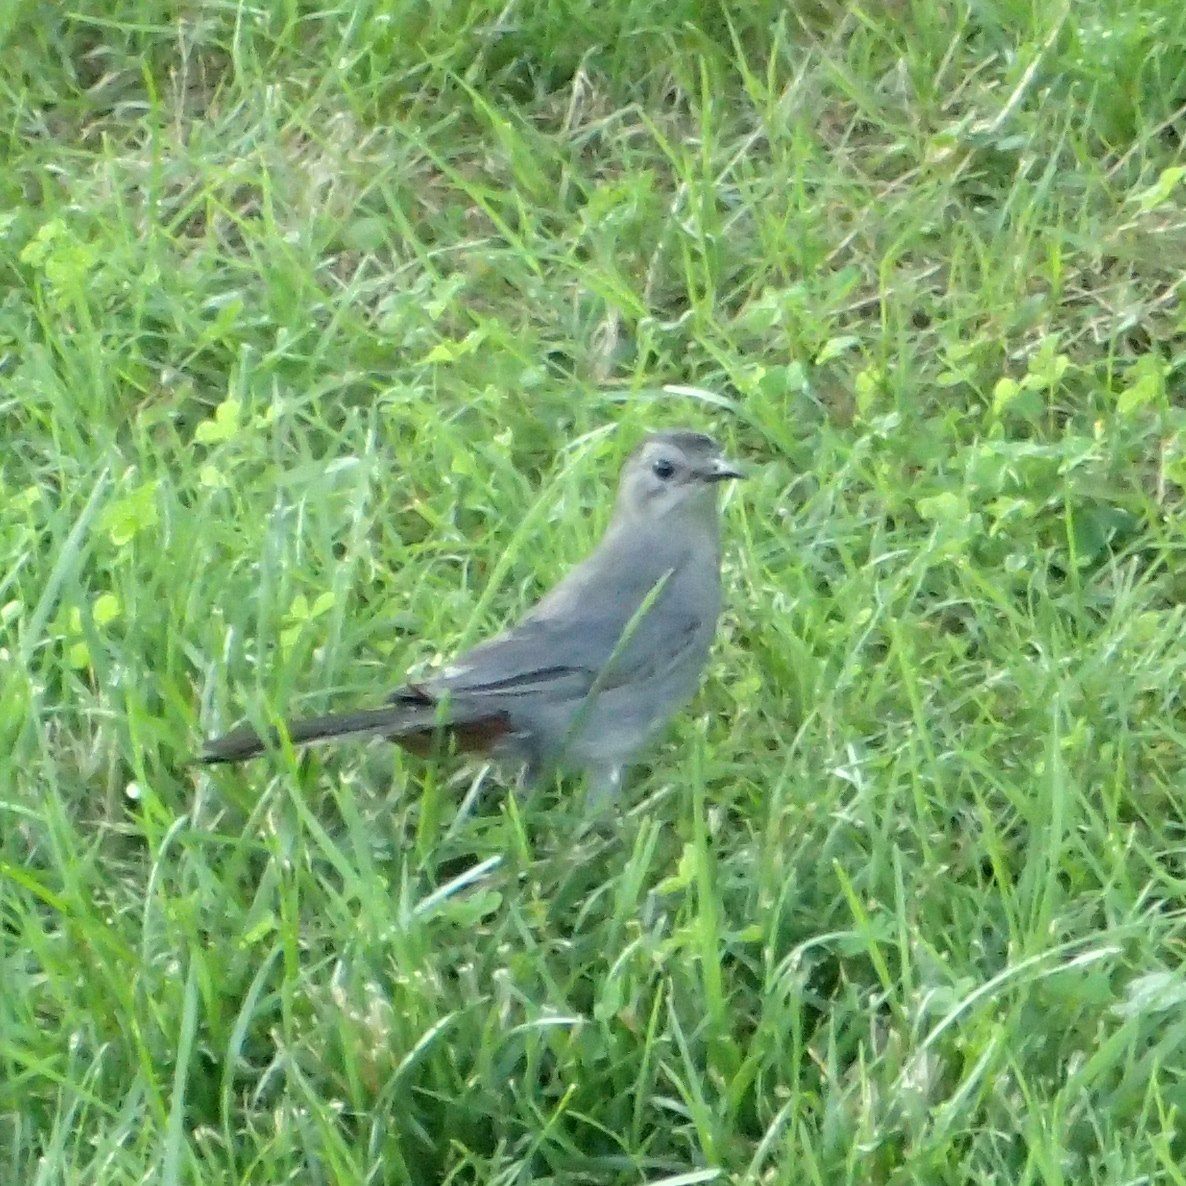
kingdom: Animalia
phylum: Chordata
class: Aves
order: Passeriformes
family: Mimidae
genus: Dumetella
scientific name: Dumetella carolinensis
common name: Gray catbird
